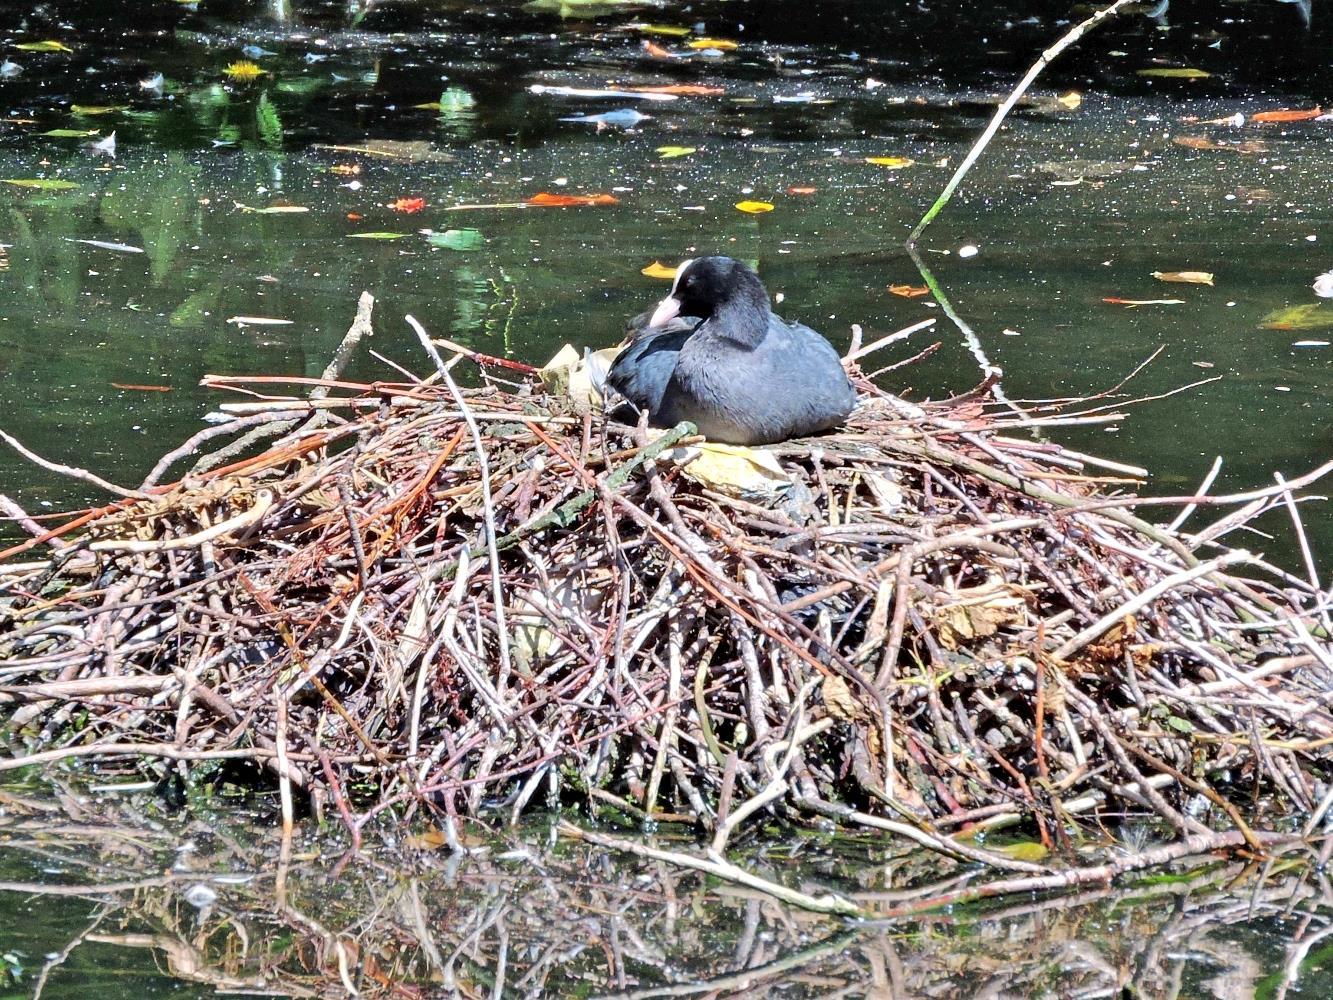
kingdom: Animalia
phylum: Chordata
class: Aves
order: Gruiformes
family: Rallidae
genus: Fulica
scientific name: Fulica atra
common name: Eurasian coot
